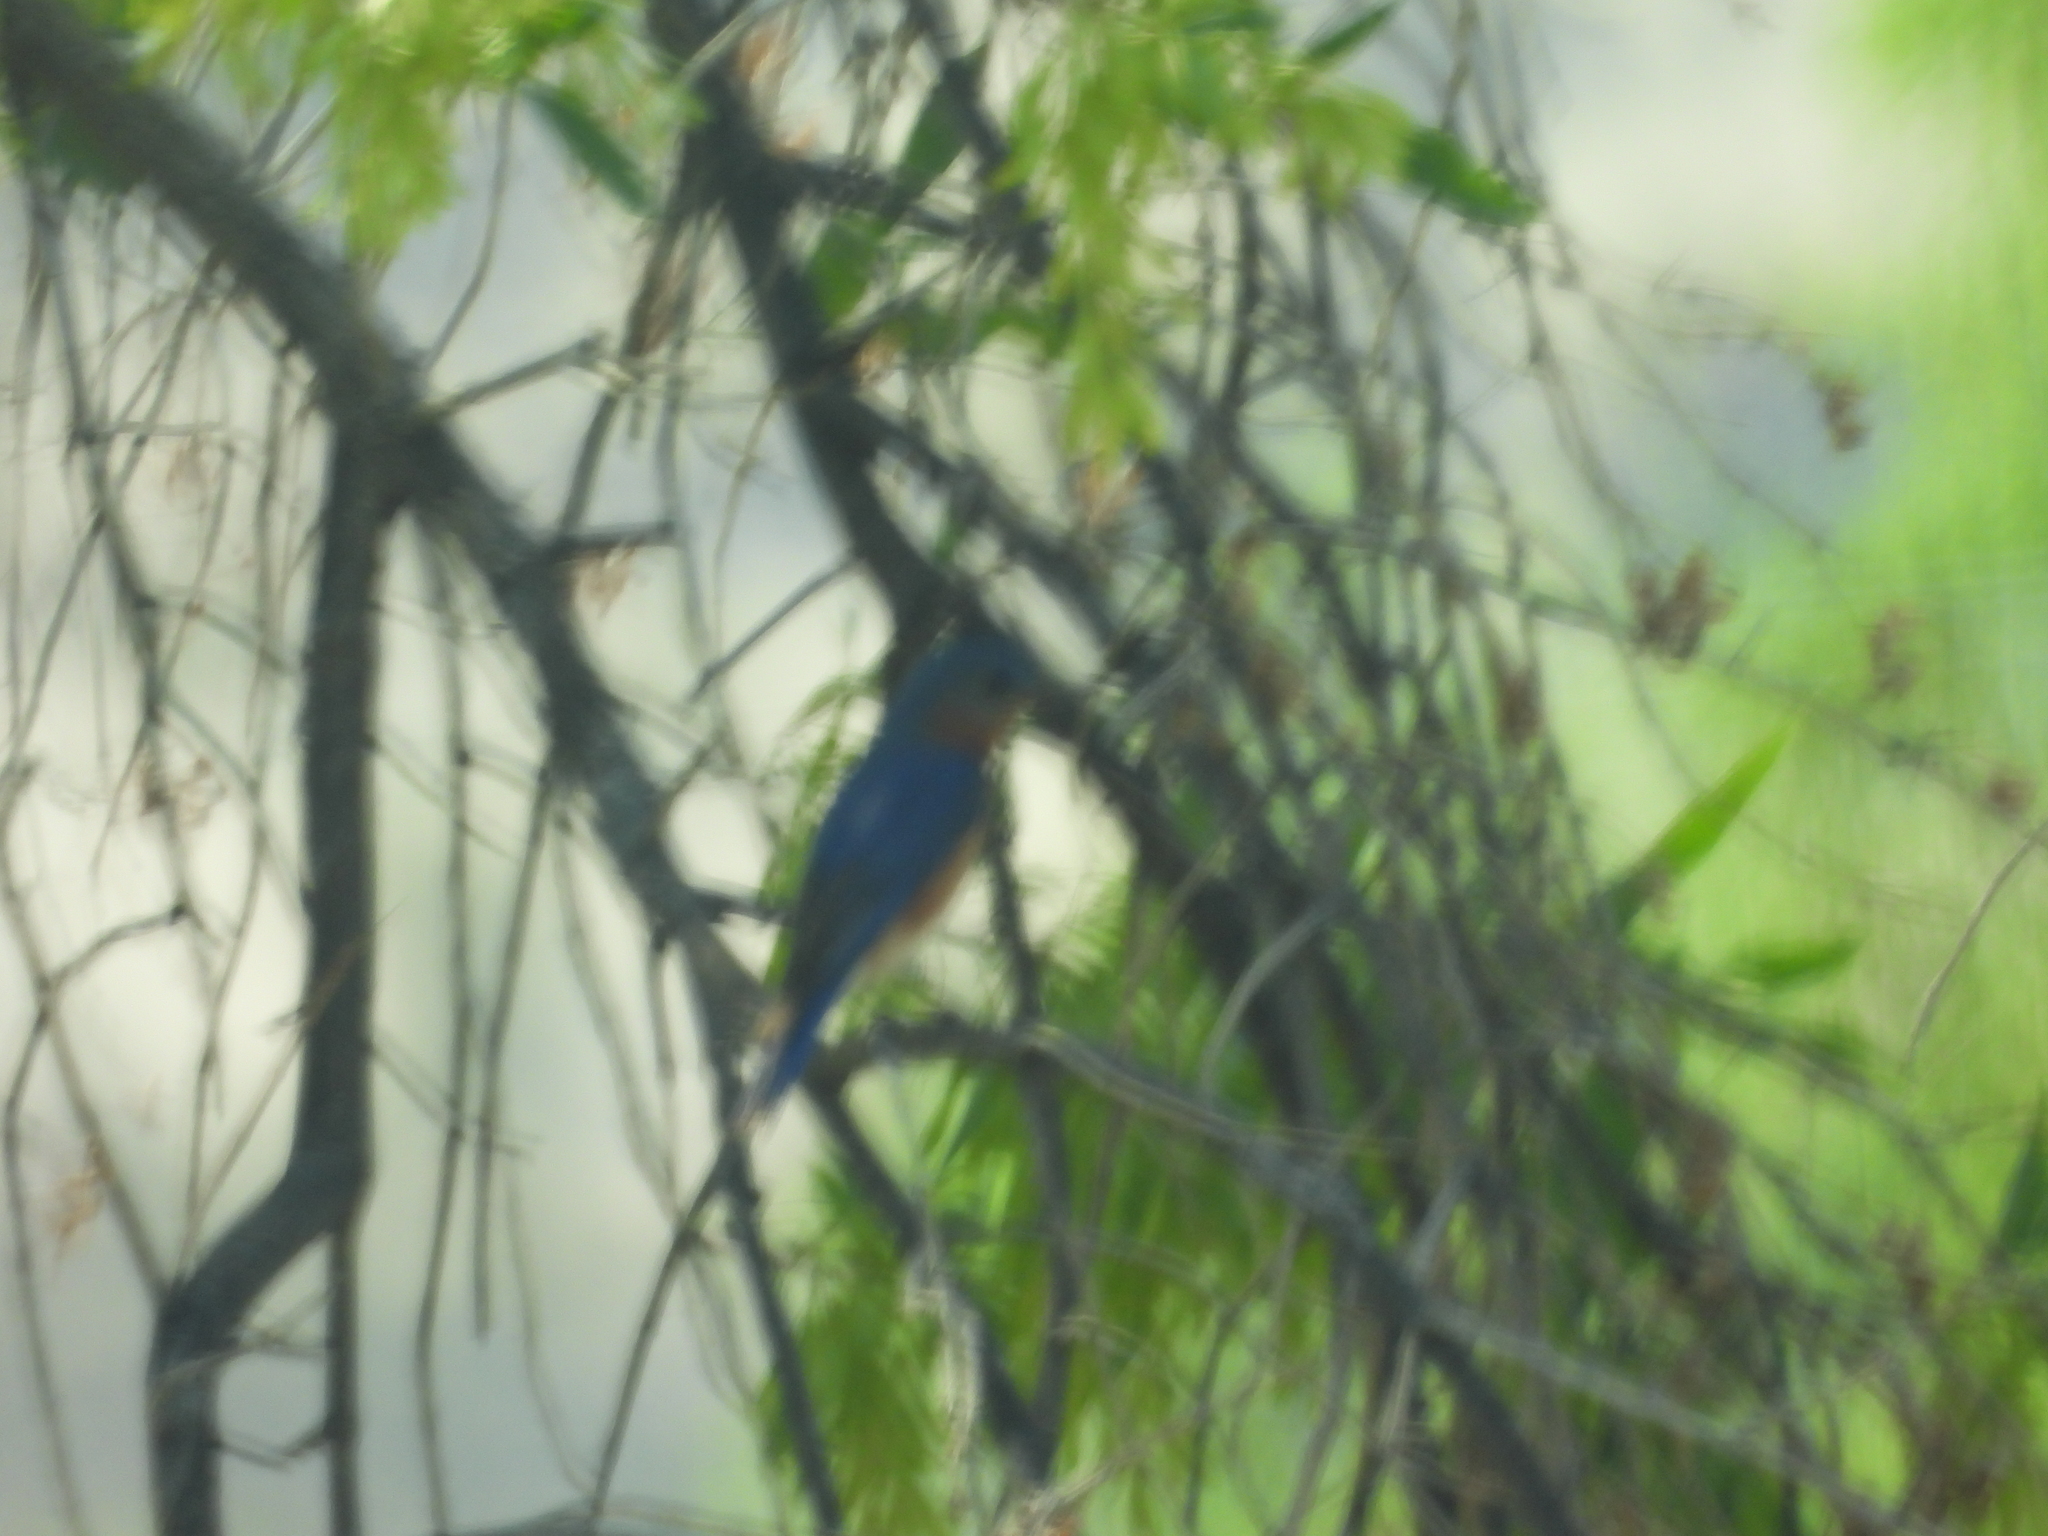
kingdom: Animalia
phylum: Chordata
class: Aves
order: Passeriformes
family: Turdidae
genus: Sialia
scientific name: Sialia mexicana
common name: Western bluebird
